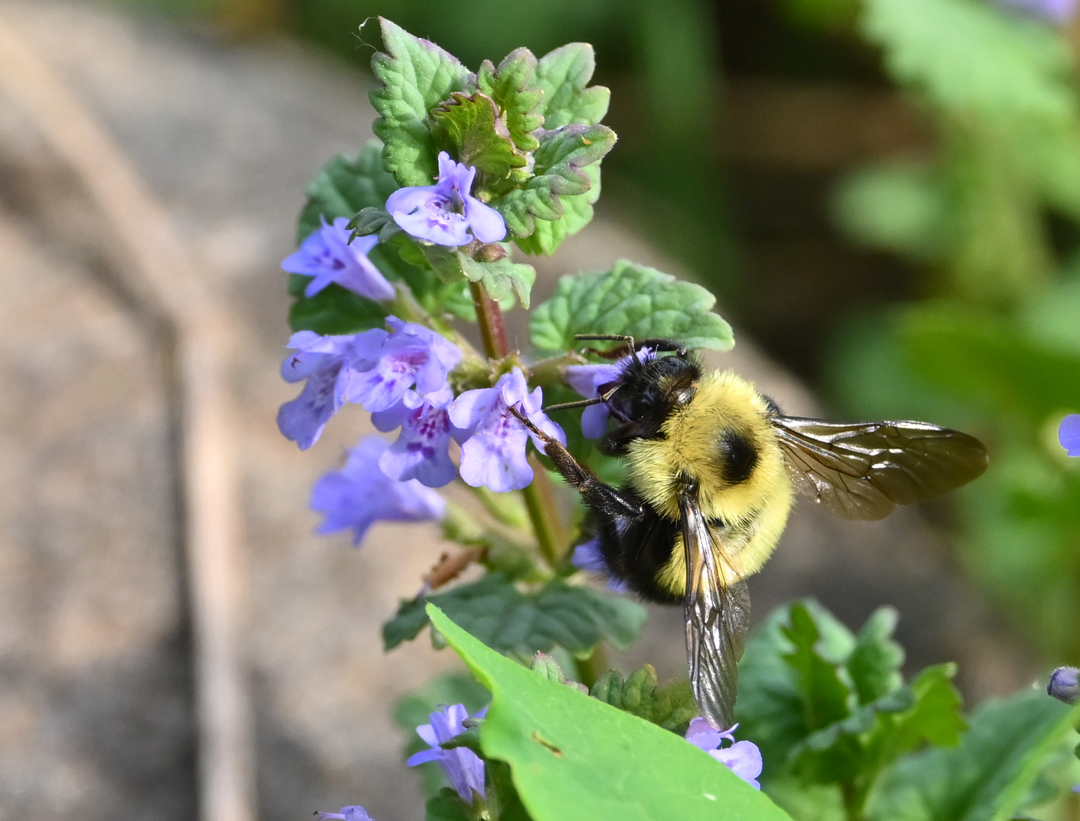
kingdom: Animalia
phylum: Arthropoda
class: Insecta
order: Hymenoptera
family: Apidae
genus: Bombus
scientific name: Bombus vagans
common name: Half-black bumble bee
